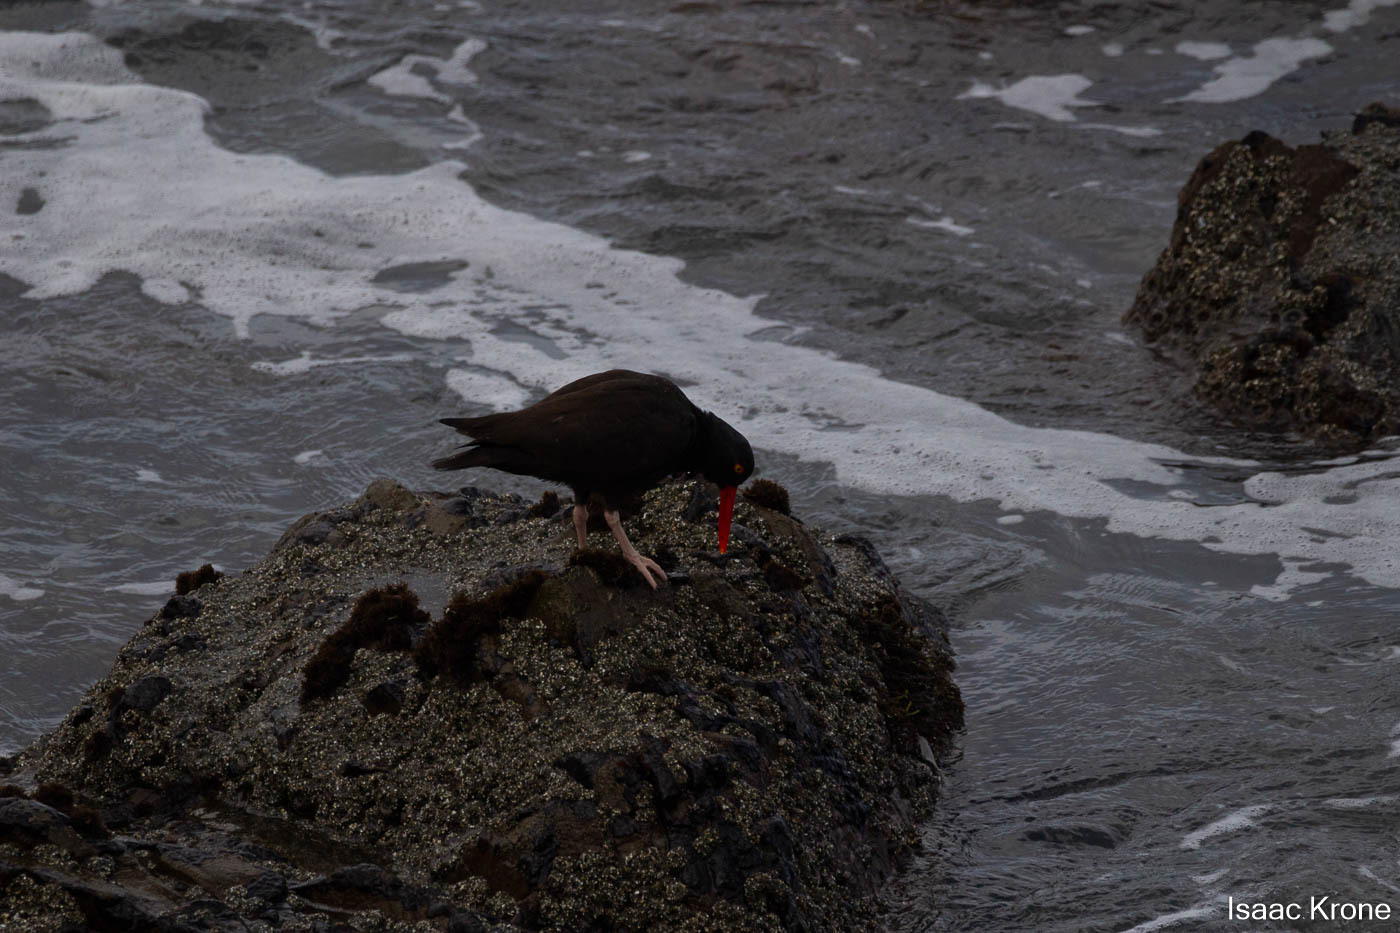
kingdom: Animalia
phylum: Chordata
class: Aves
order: Charadriiformes
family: Haematopodidae
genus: Haematopus
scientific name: Haematopus bachmani
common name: Black oystercatcher
